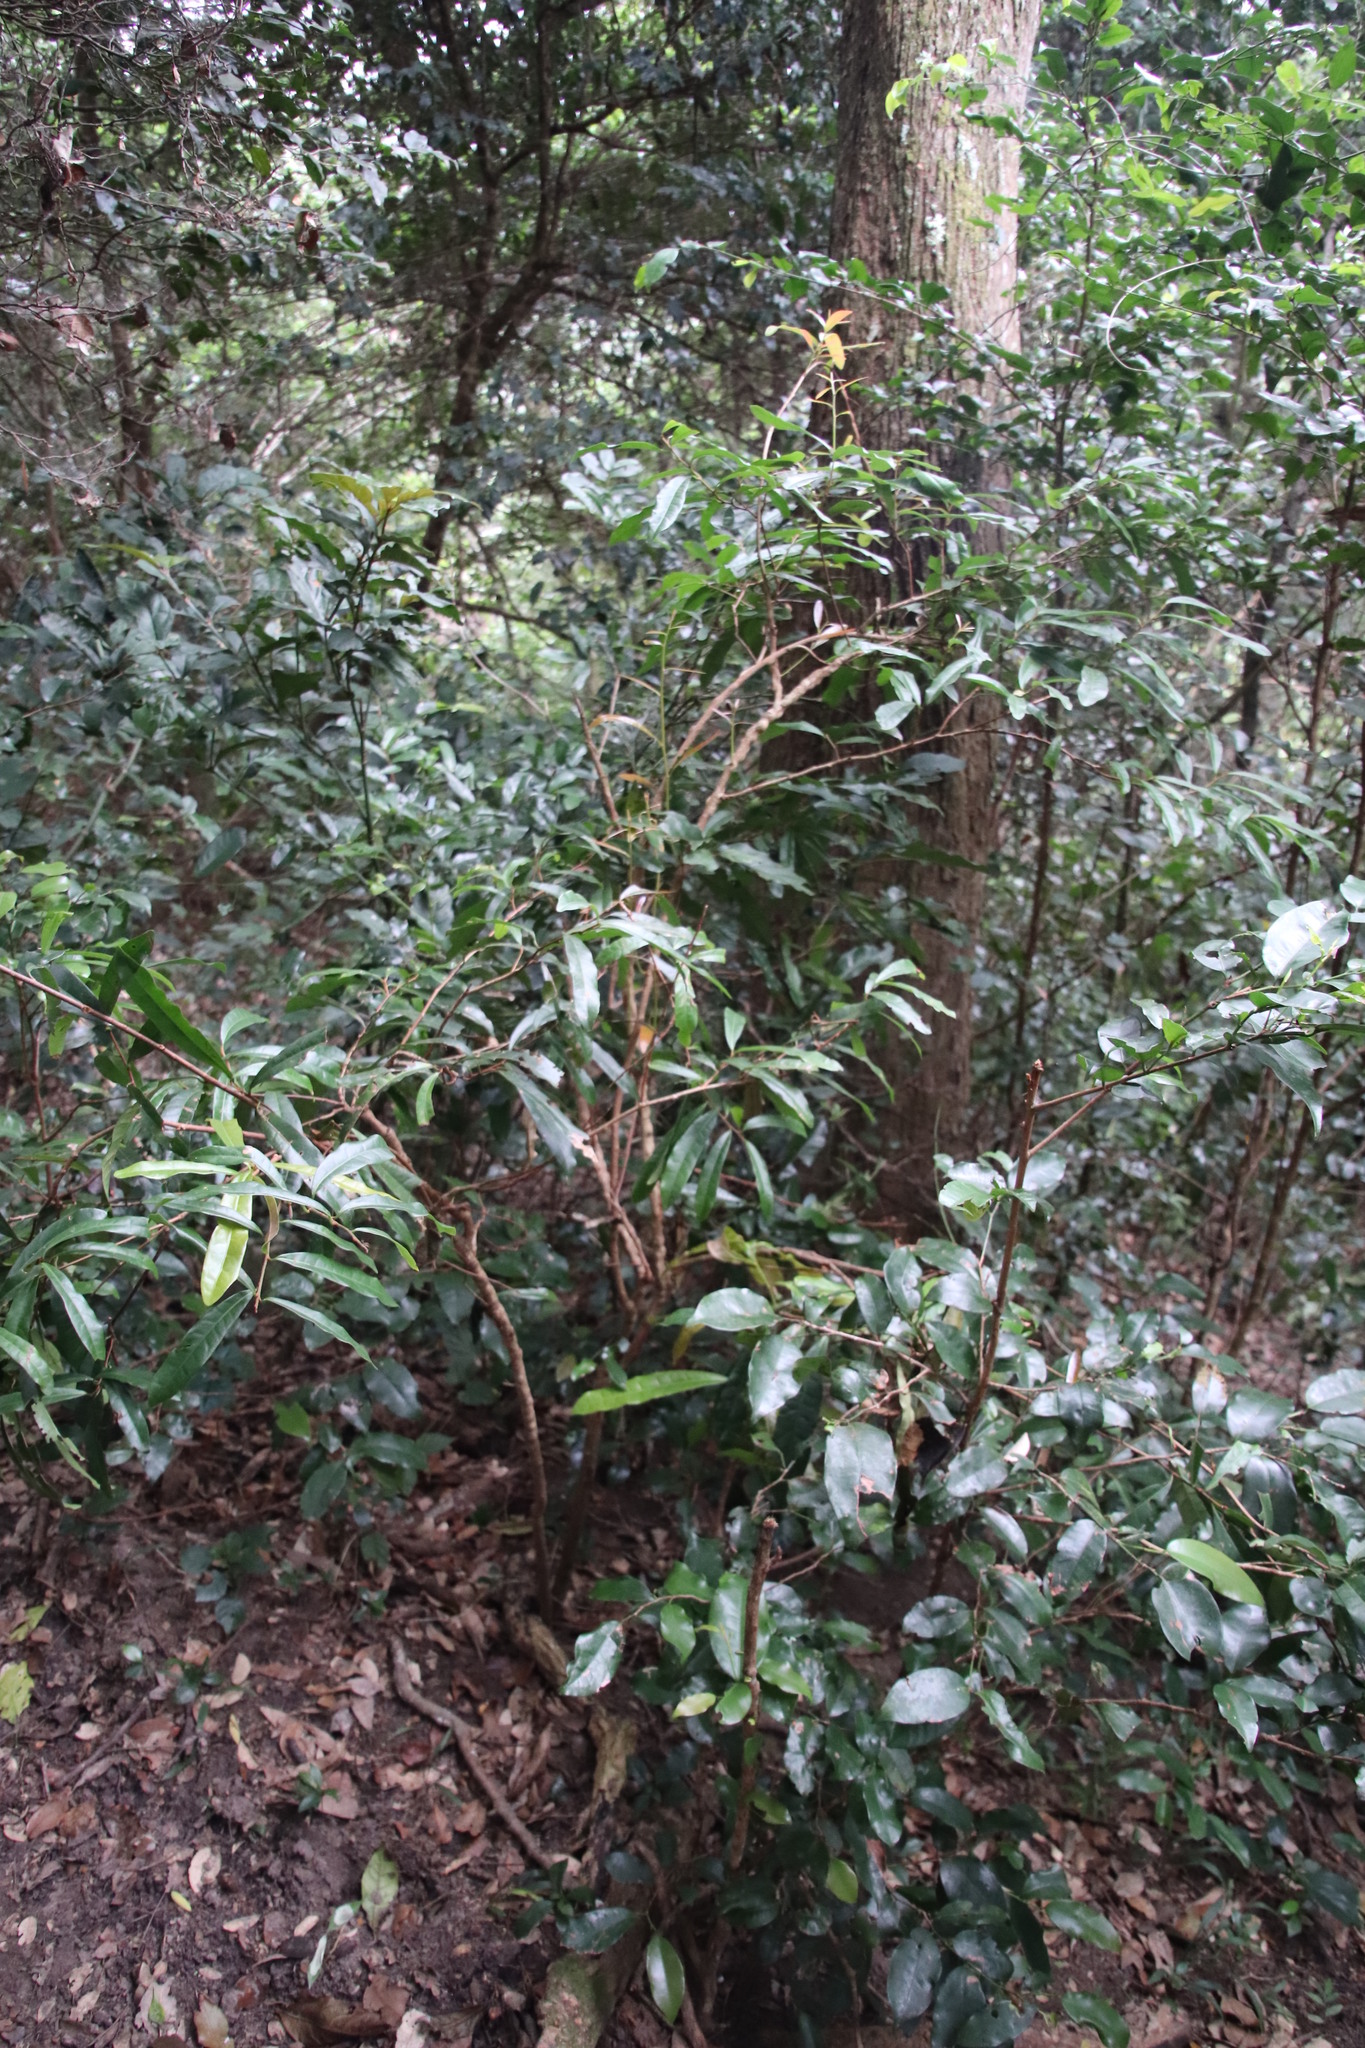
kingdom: Plantae
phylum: Tracheophyta
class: Magnoliopsida
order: Malpighiales
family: Malpighiaceae
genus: Acridocarpus
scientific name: Acridocarpus natalitius
